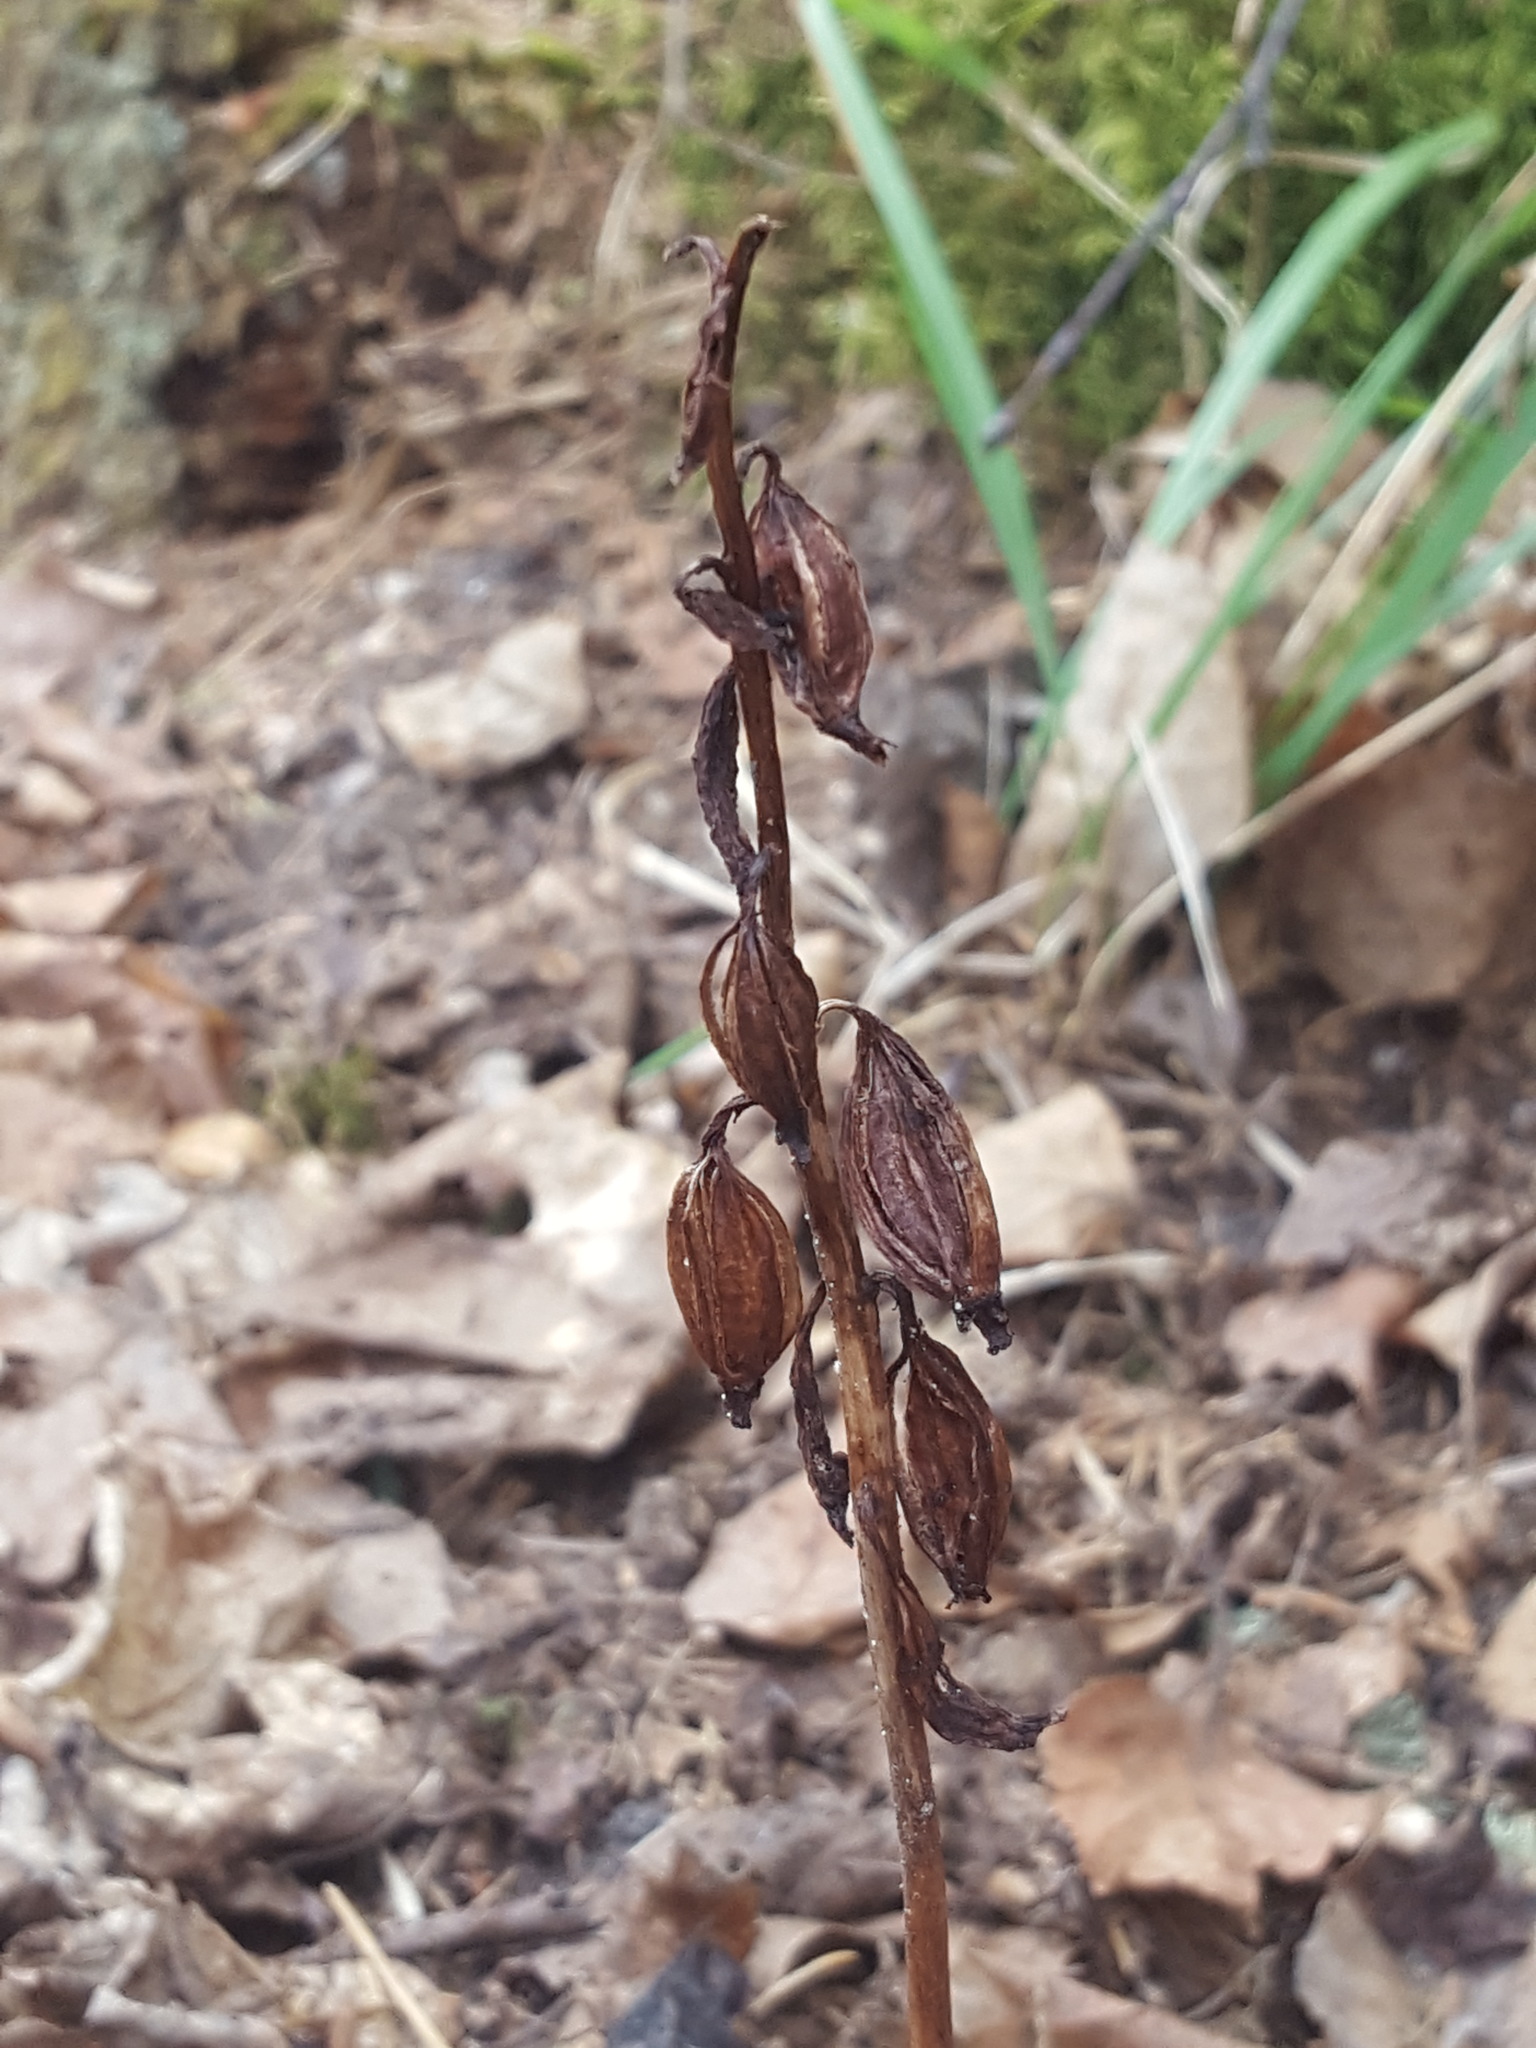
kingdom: Plantae
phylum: Tracheophyta
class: Liliopsida
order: Asparagales
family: Orchidaceae
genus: Corallorhiza
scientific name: Corallorhiza maculata
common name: Spotted coralroot
